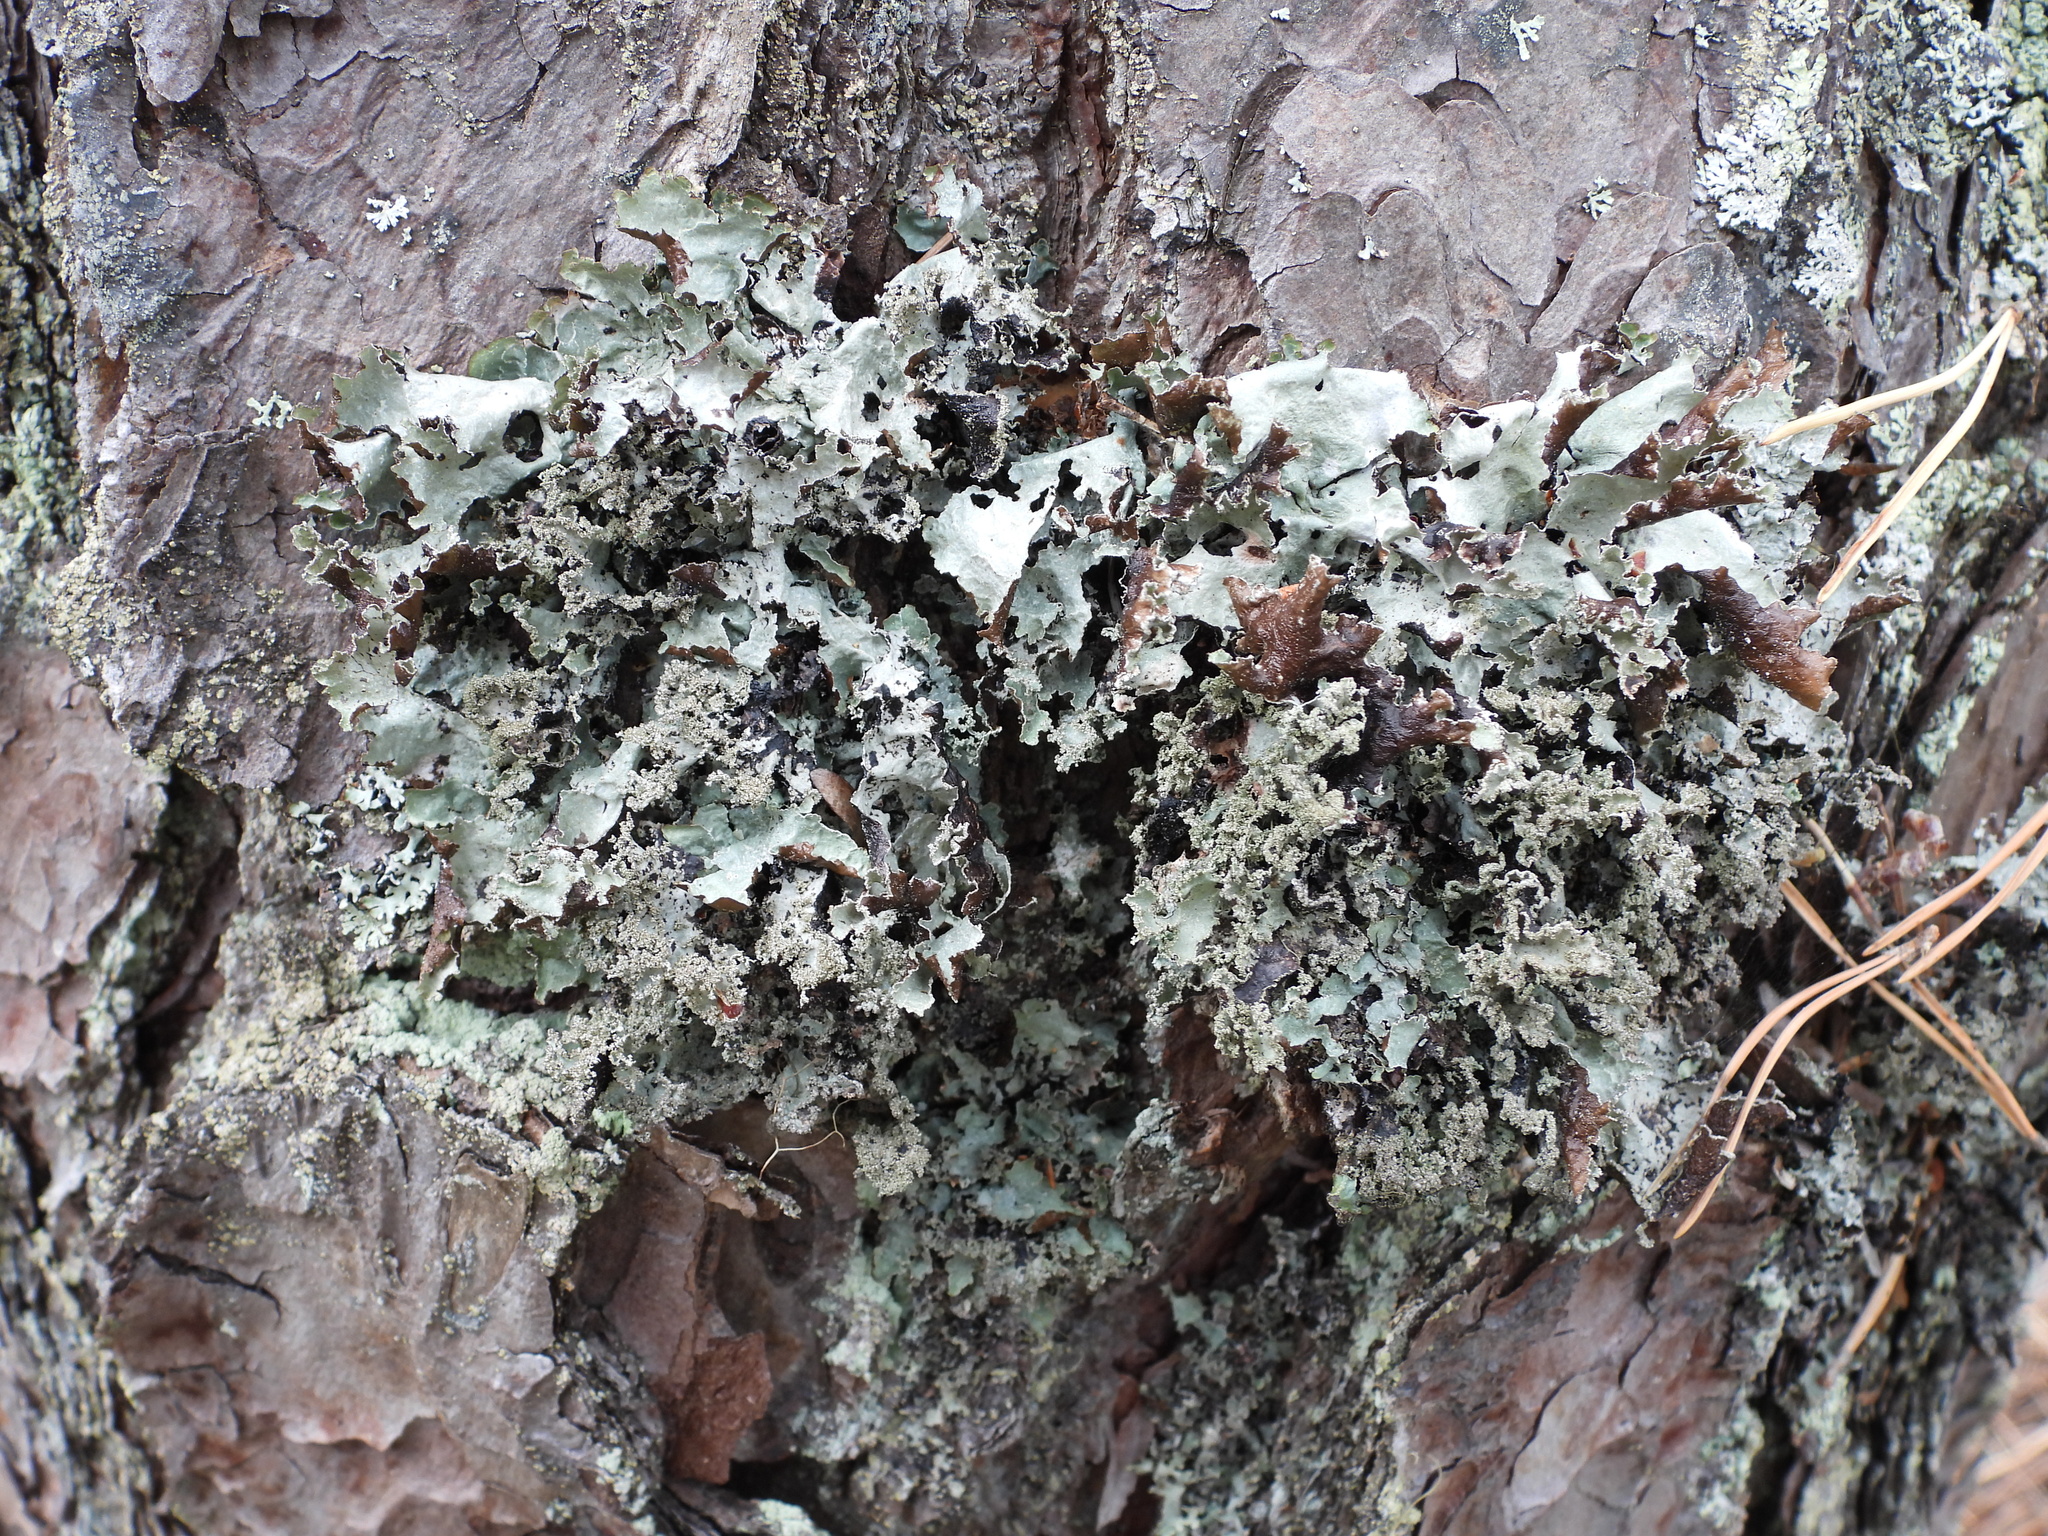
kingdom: Fungi
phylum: Ascomycota
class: Lecanoromycetes
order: Lecanorales
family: Parmeliaceae
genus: Platismatia
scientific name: Platismatia glauca
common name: Varied rag lichen
